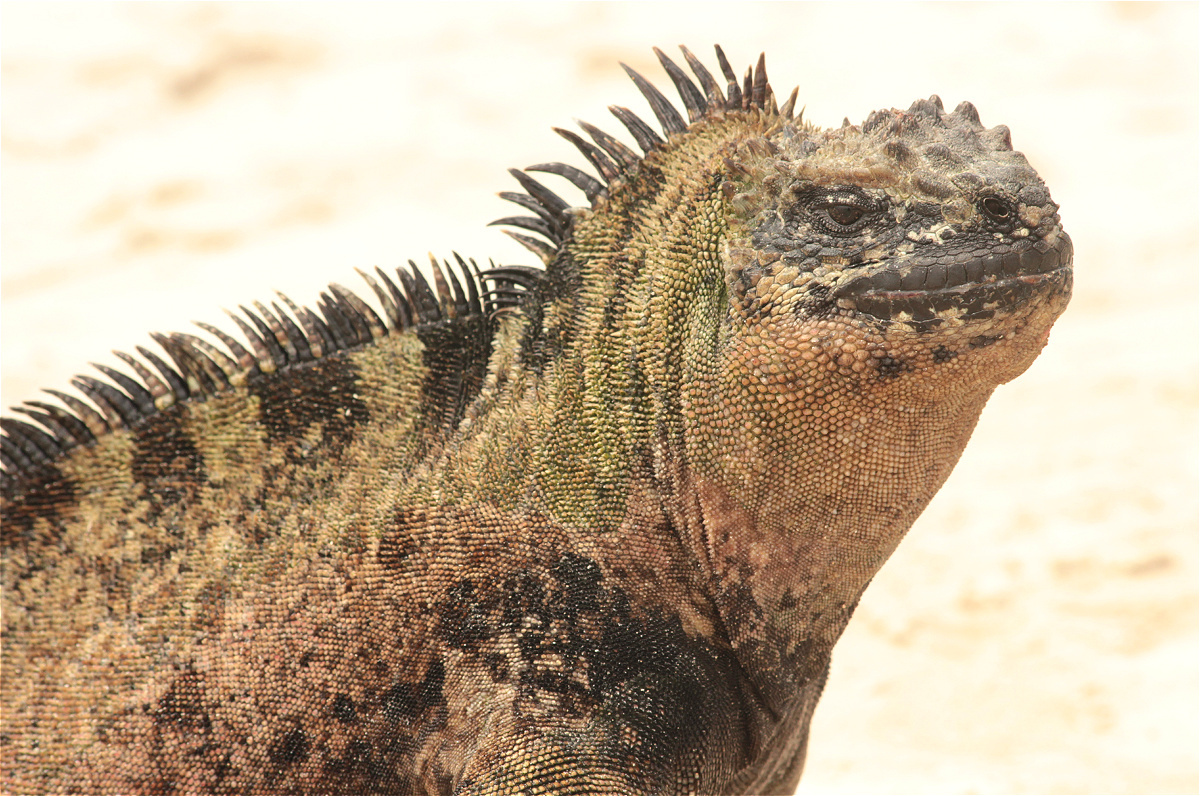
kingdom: Animalia
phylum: Chordata
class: Squamata
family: Iguanidae
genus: Amblyrhynchus
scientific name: Amblyrhynchus cristatus
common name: Marine iguana
